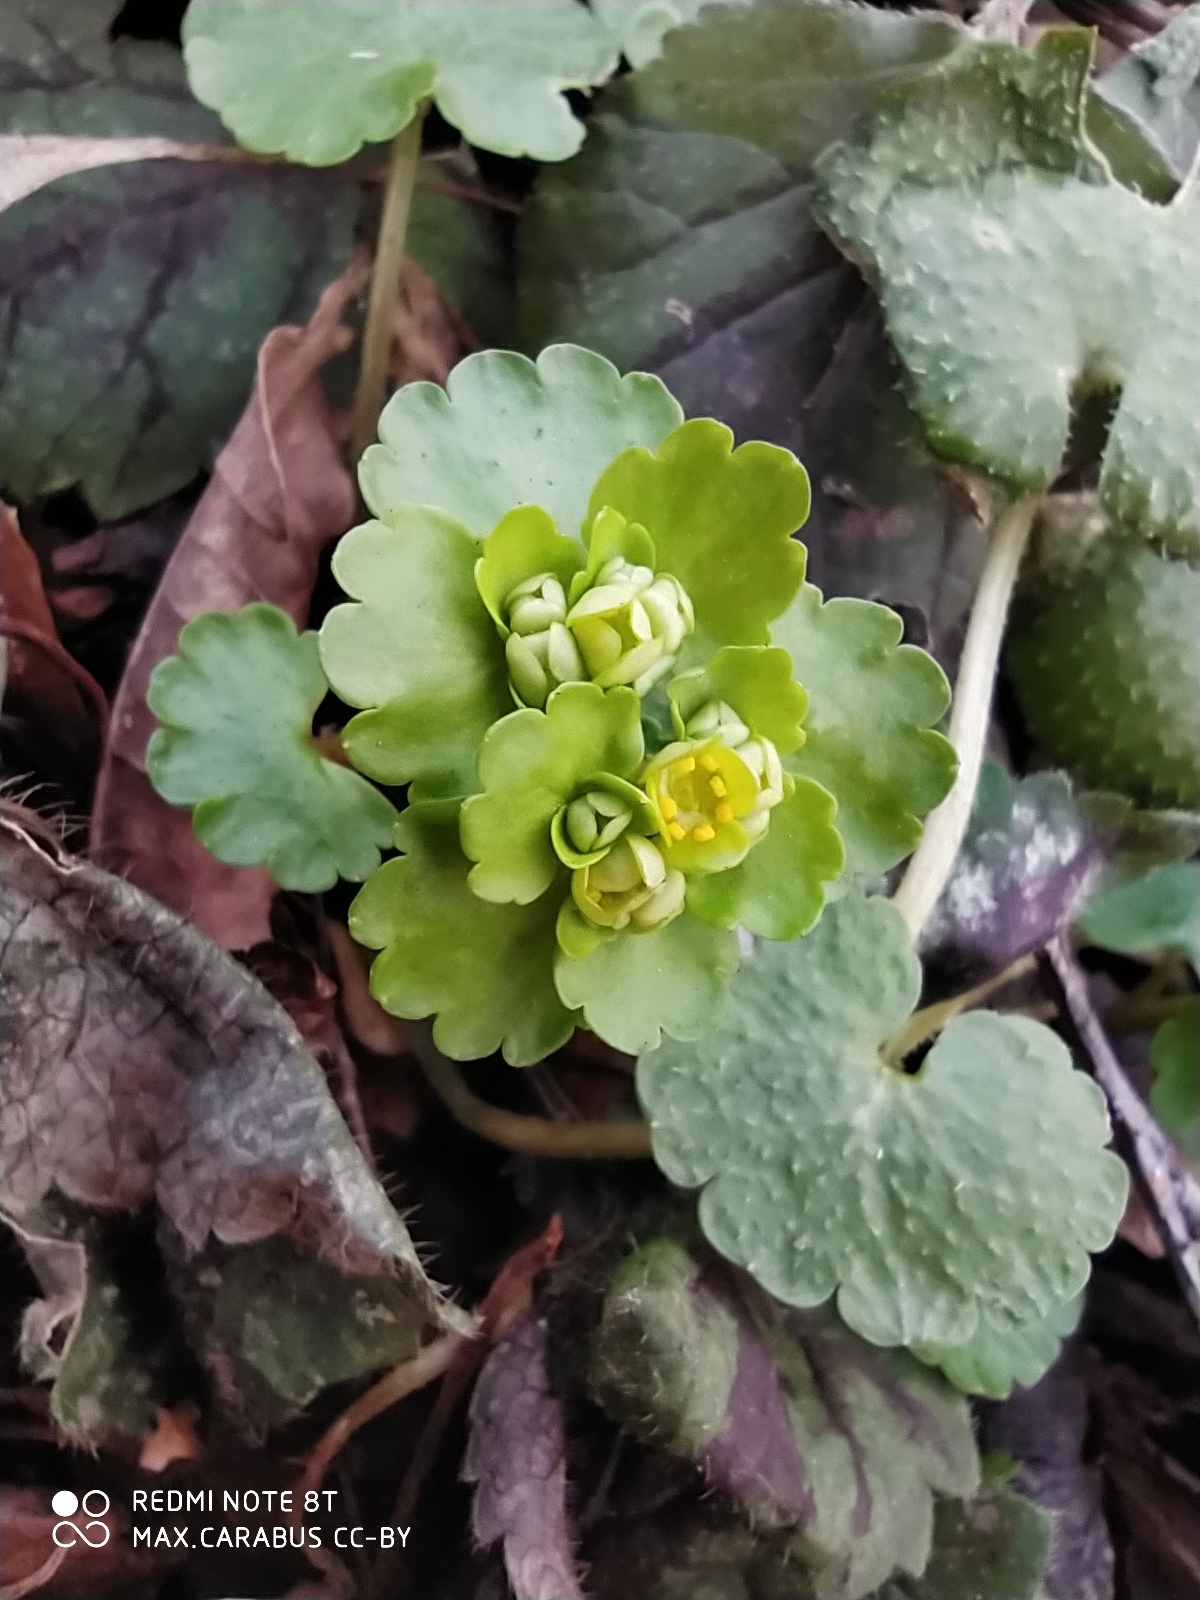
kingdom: Plantae
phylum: Tracheophyta
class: Magnoliopsida
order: Saxifragales
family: Saxifragaceae
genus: Chrysosplenium
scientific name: Chrysosplenium alternifolium
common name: Alternate-leaved golden-saxifrage
